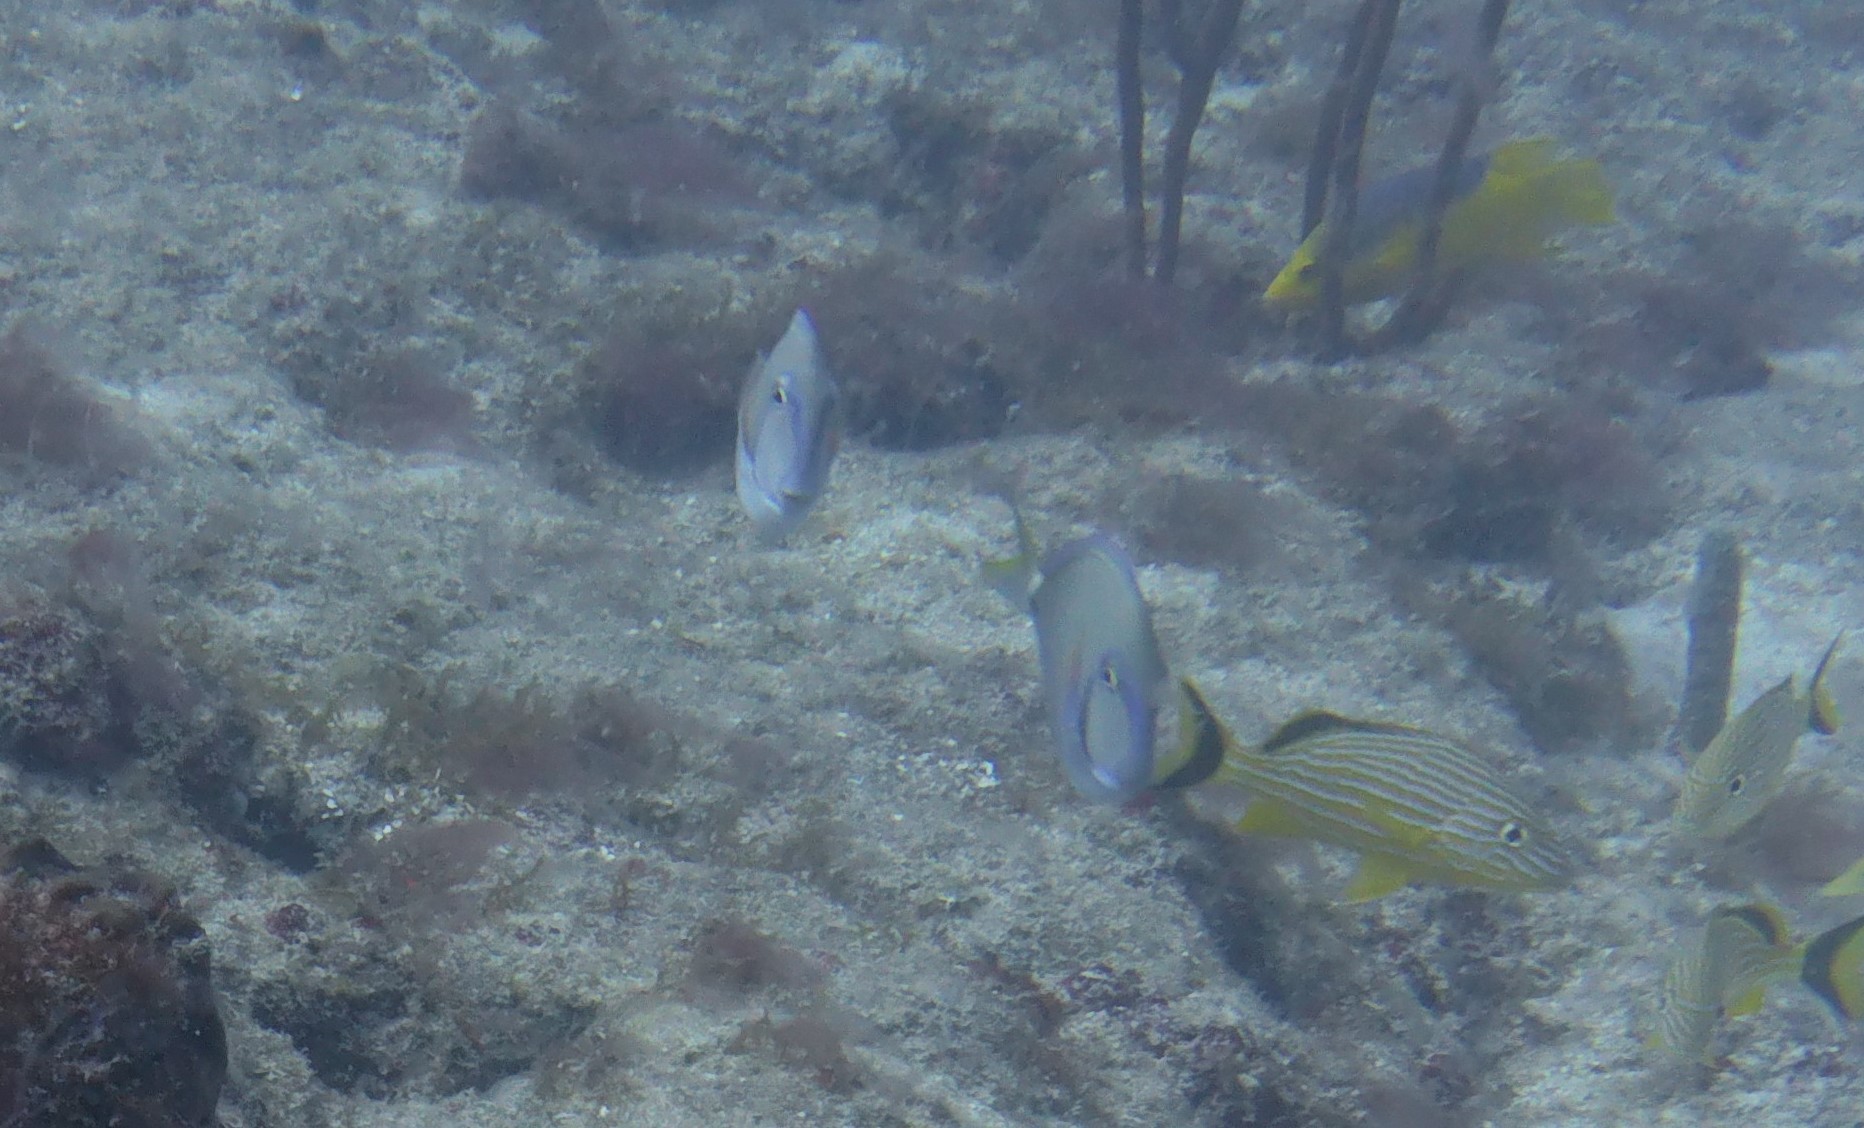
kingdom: Animalia
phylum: Chordata
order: Perciformes
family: Acanthuridae
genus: Acanthurus
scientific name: Acanthurus bahianus
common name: Ocean surgeon
